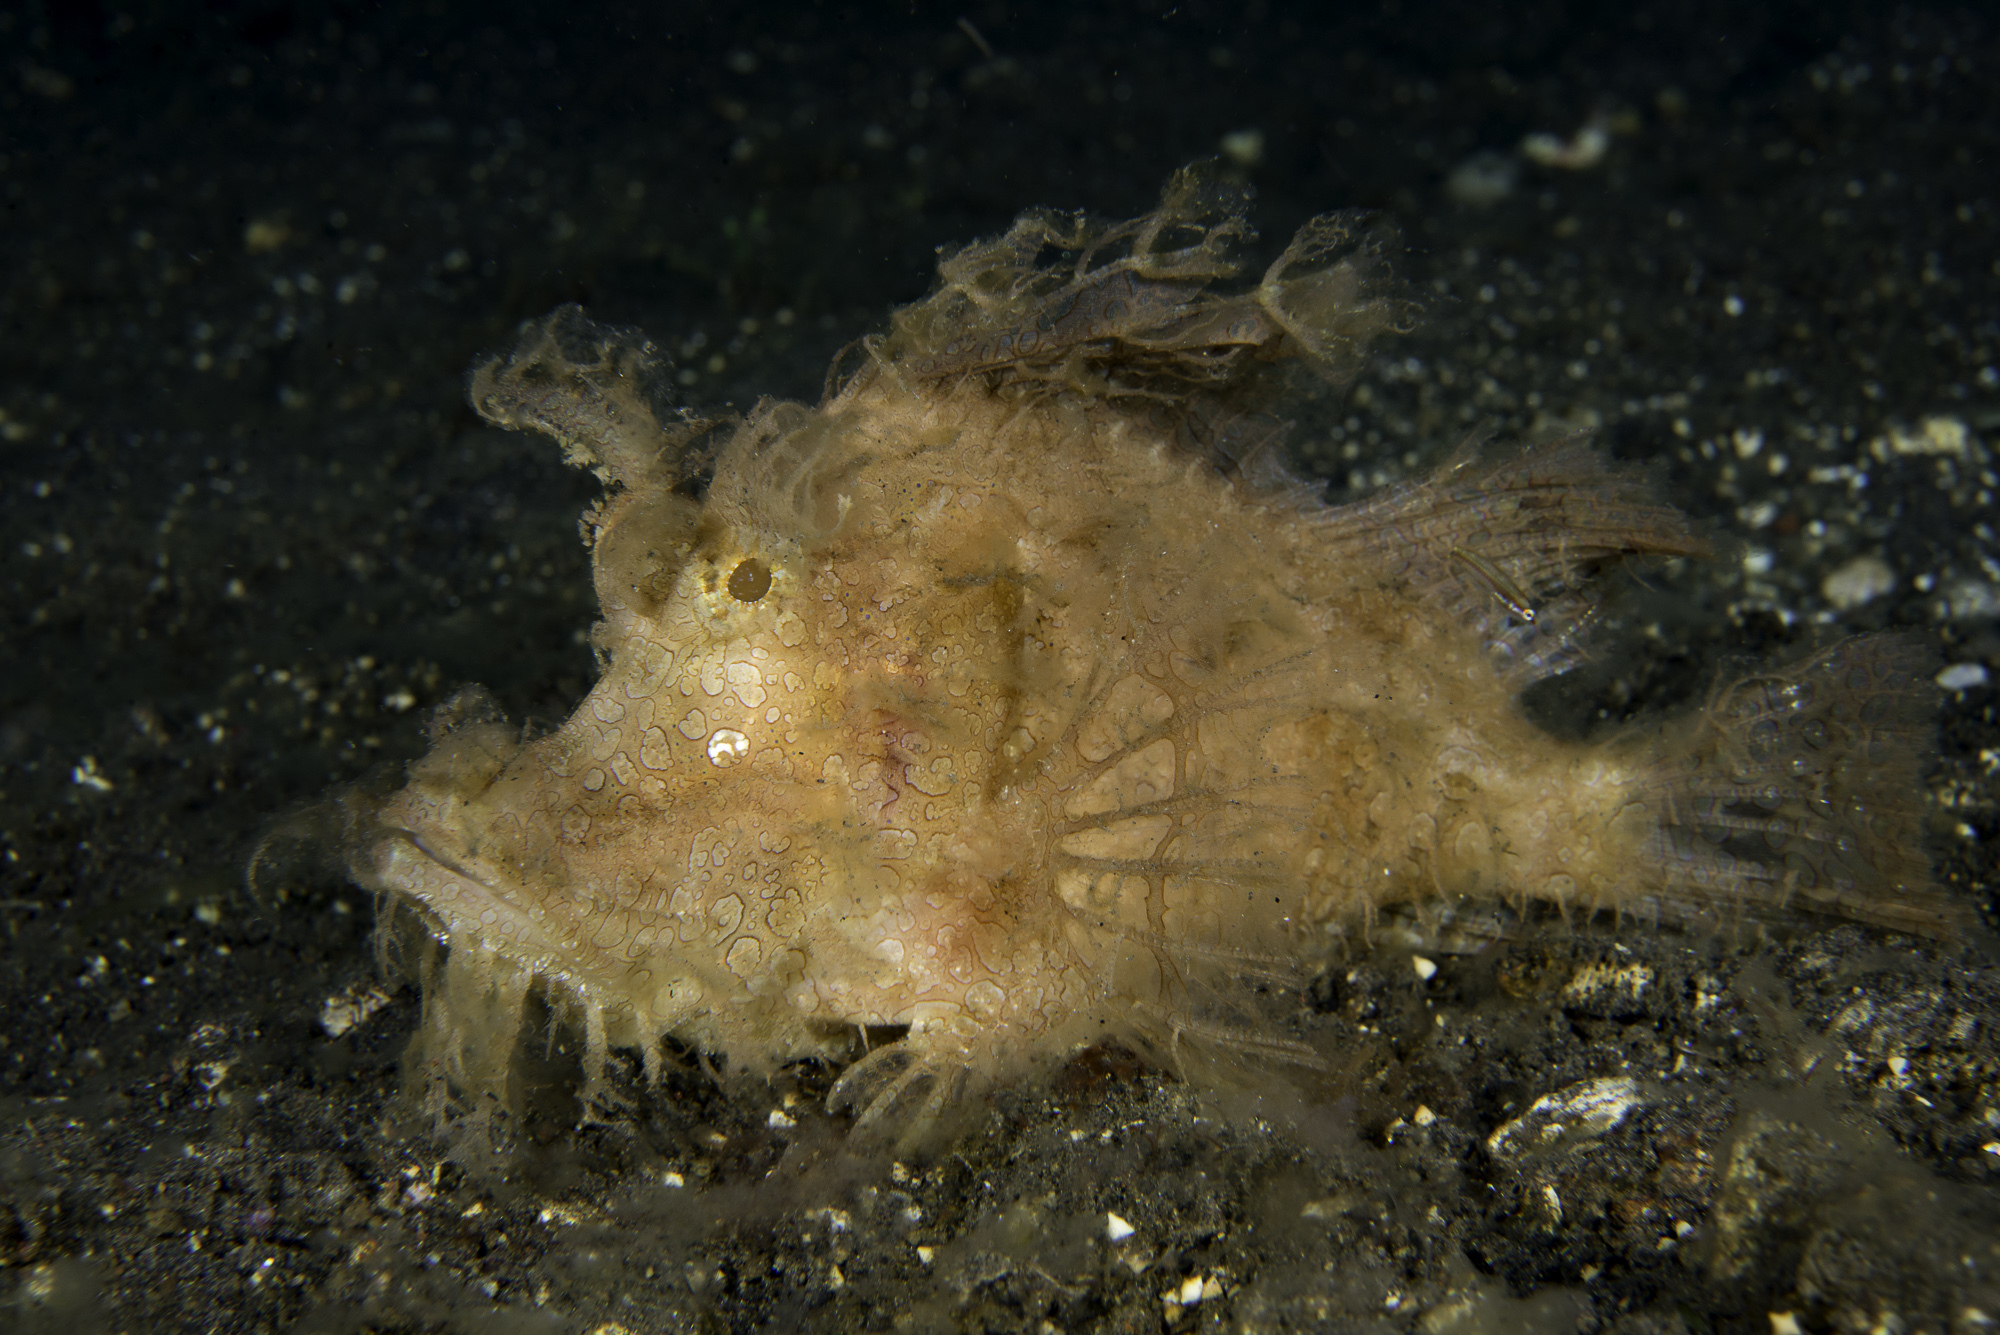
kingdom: Animalia
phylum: Chordata
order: Scorpaeniformes
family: Scorpaenidae
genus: Rhinopias
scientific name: Rhinopias frondosa
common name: Weedy scorpionfish
